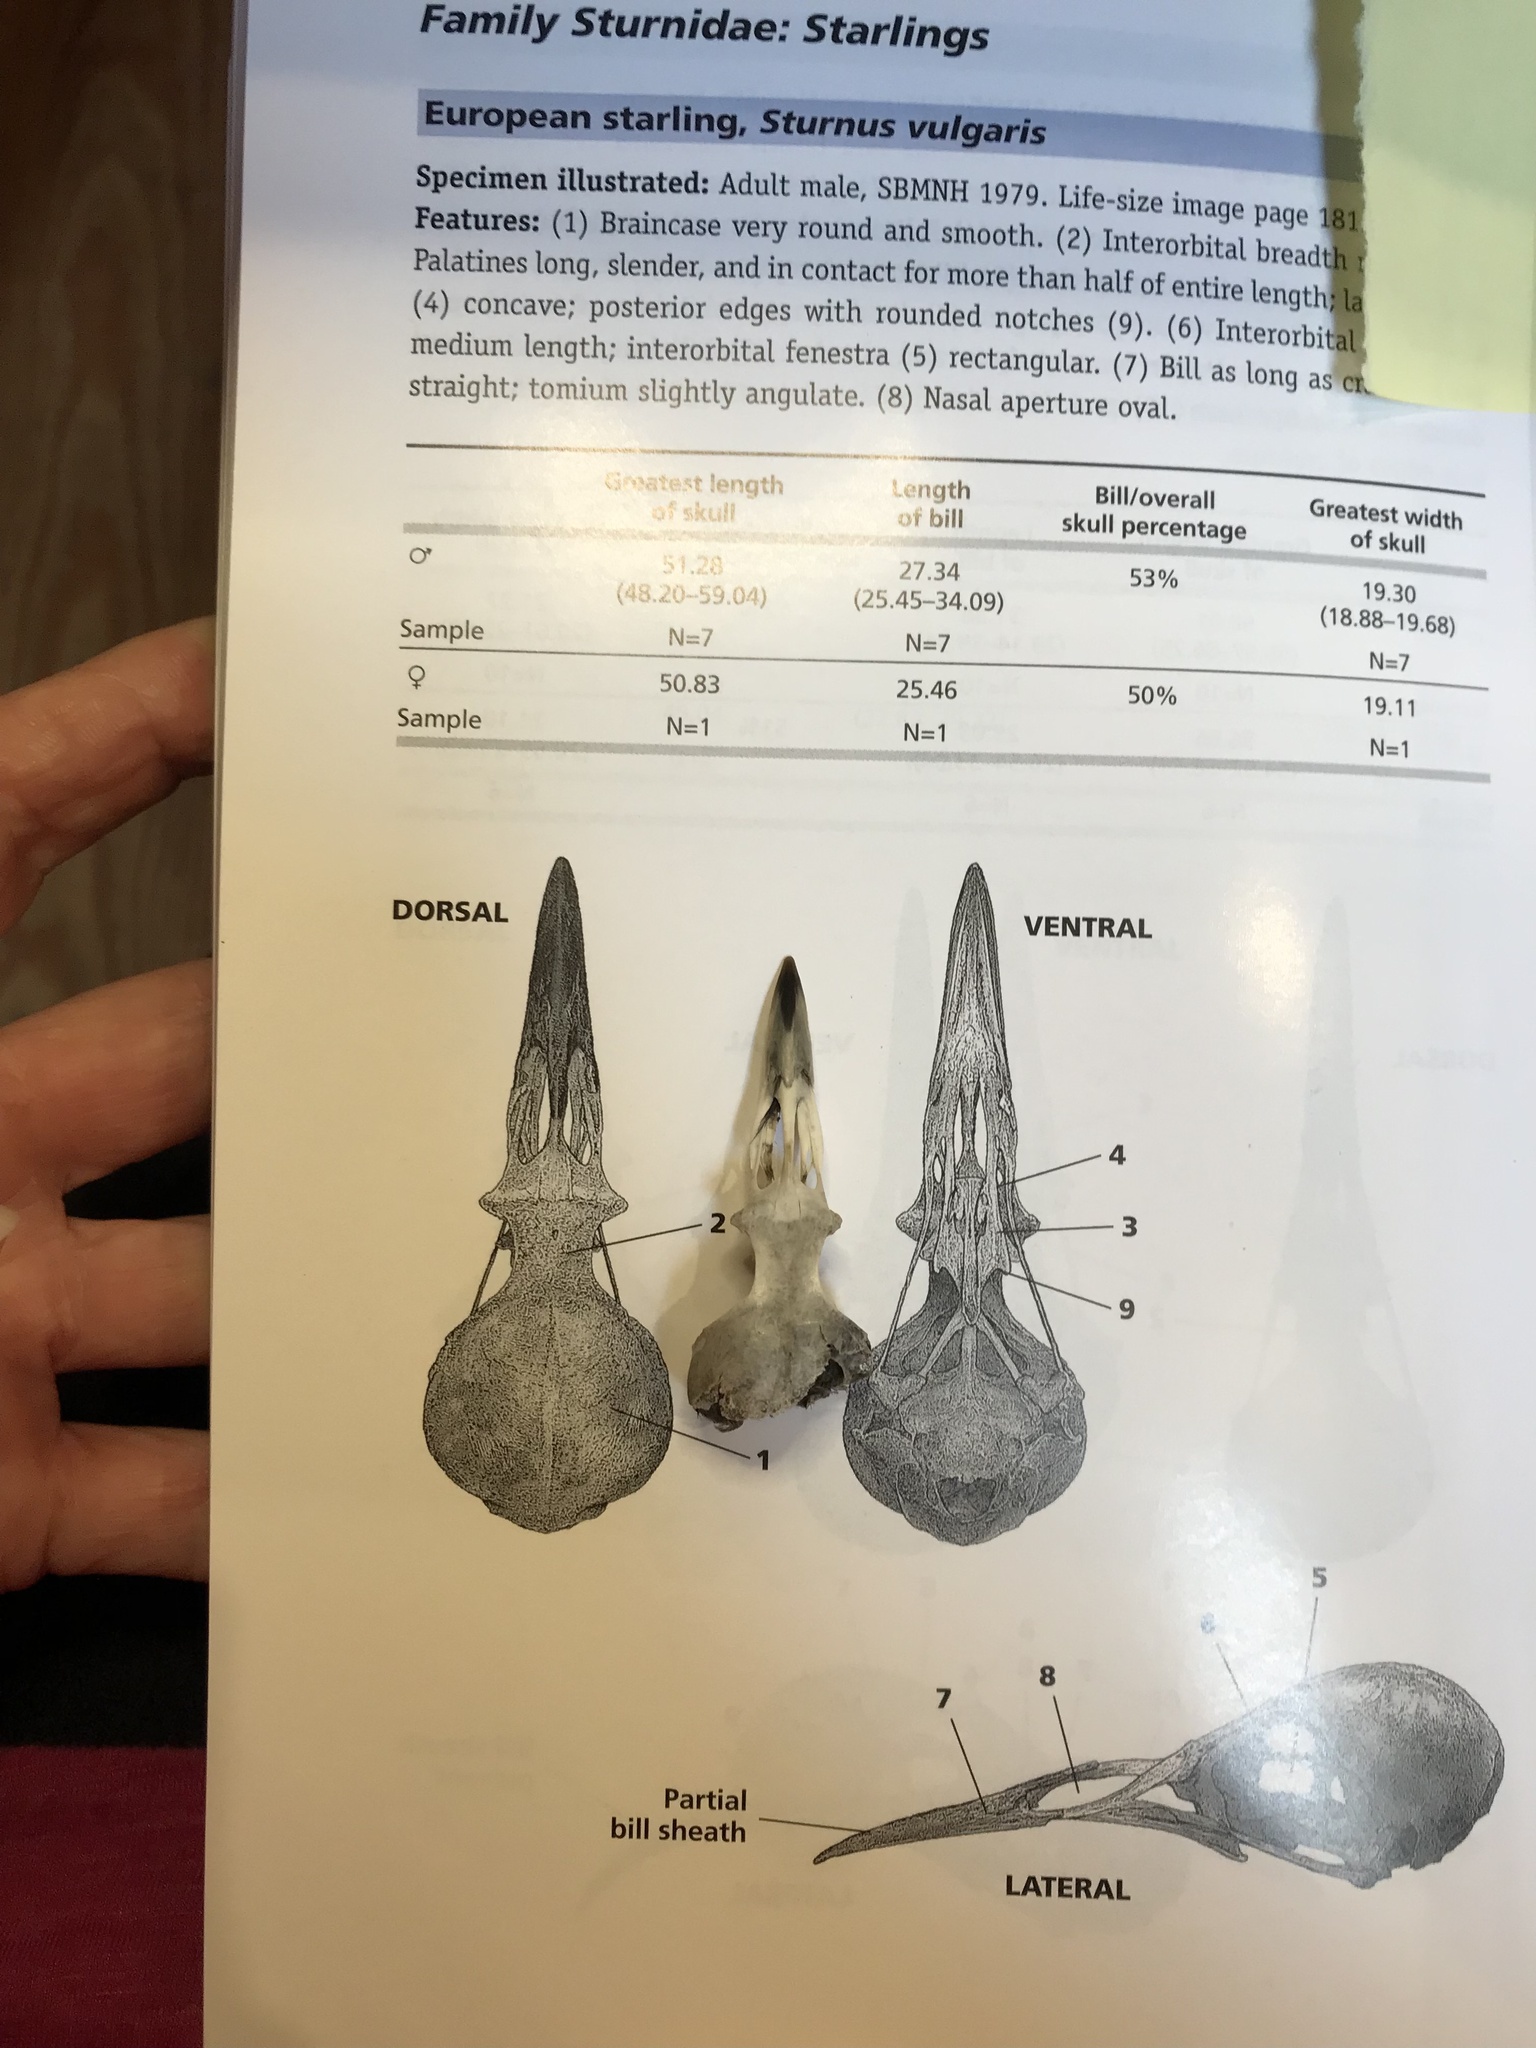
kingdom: Animalia
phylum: Chordata
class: Aves
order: Passeriformes
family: Sturnidae
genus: Sturnus
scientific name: Sturnus vulgaris
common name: Common starling
